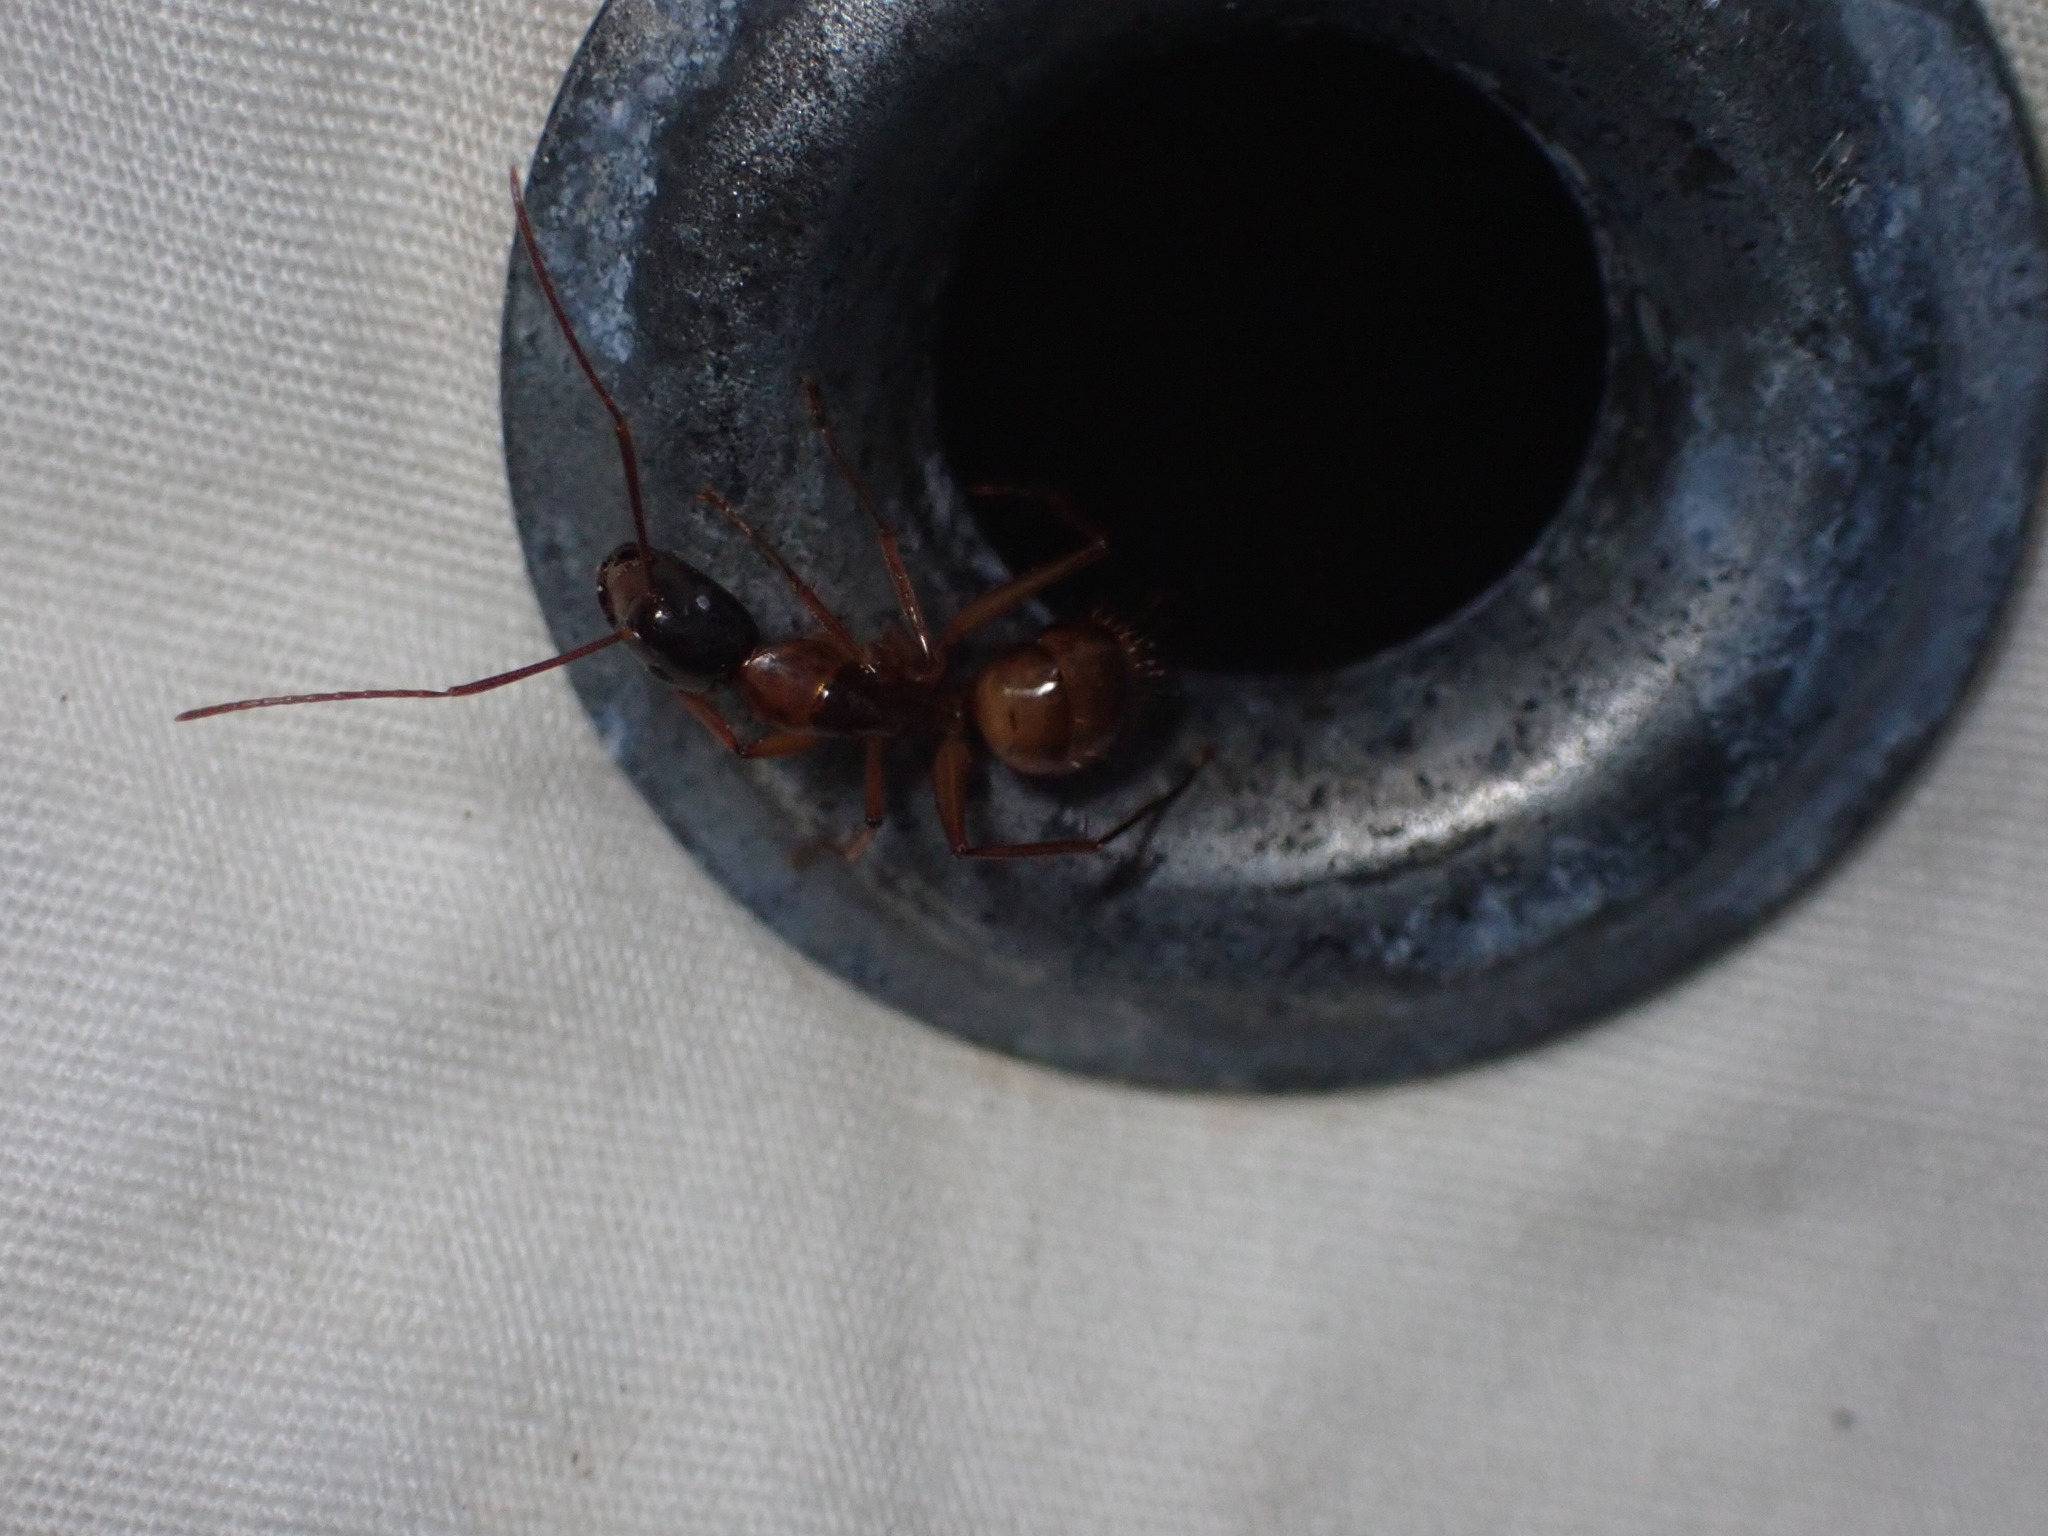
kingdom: Animalia
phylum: Arthropoda
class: Insecta
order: Hymenoptera
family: Formicidae
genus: Camponotus
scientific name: Camponotus americanus
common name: American carpenter ant
